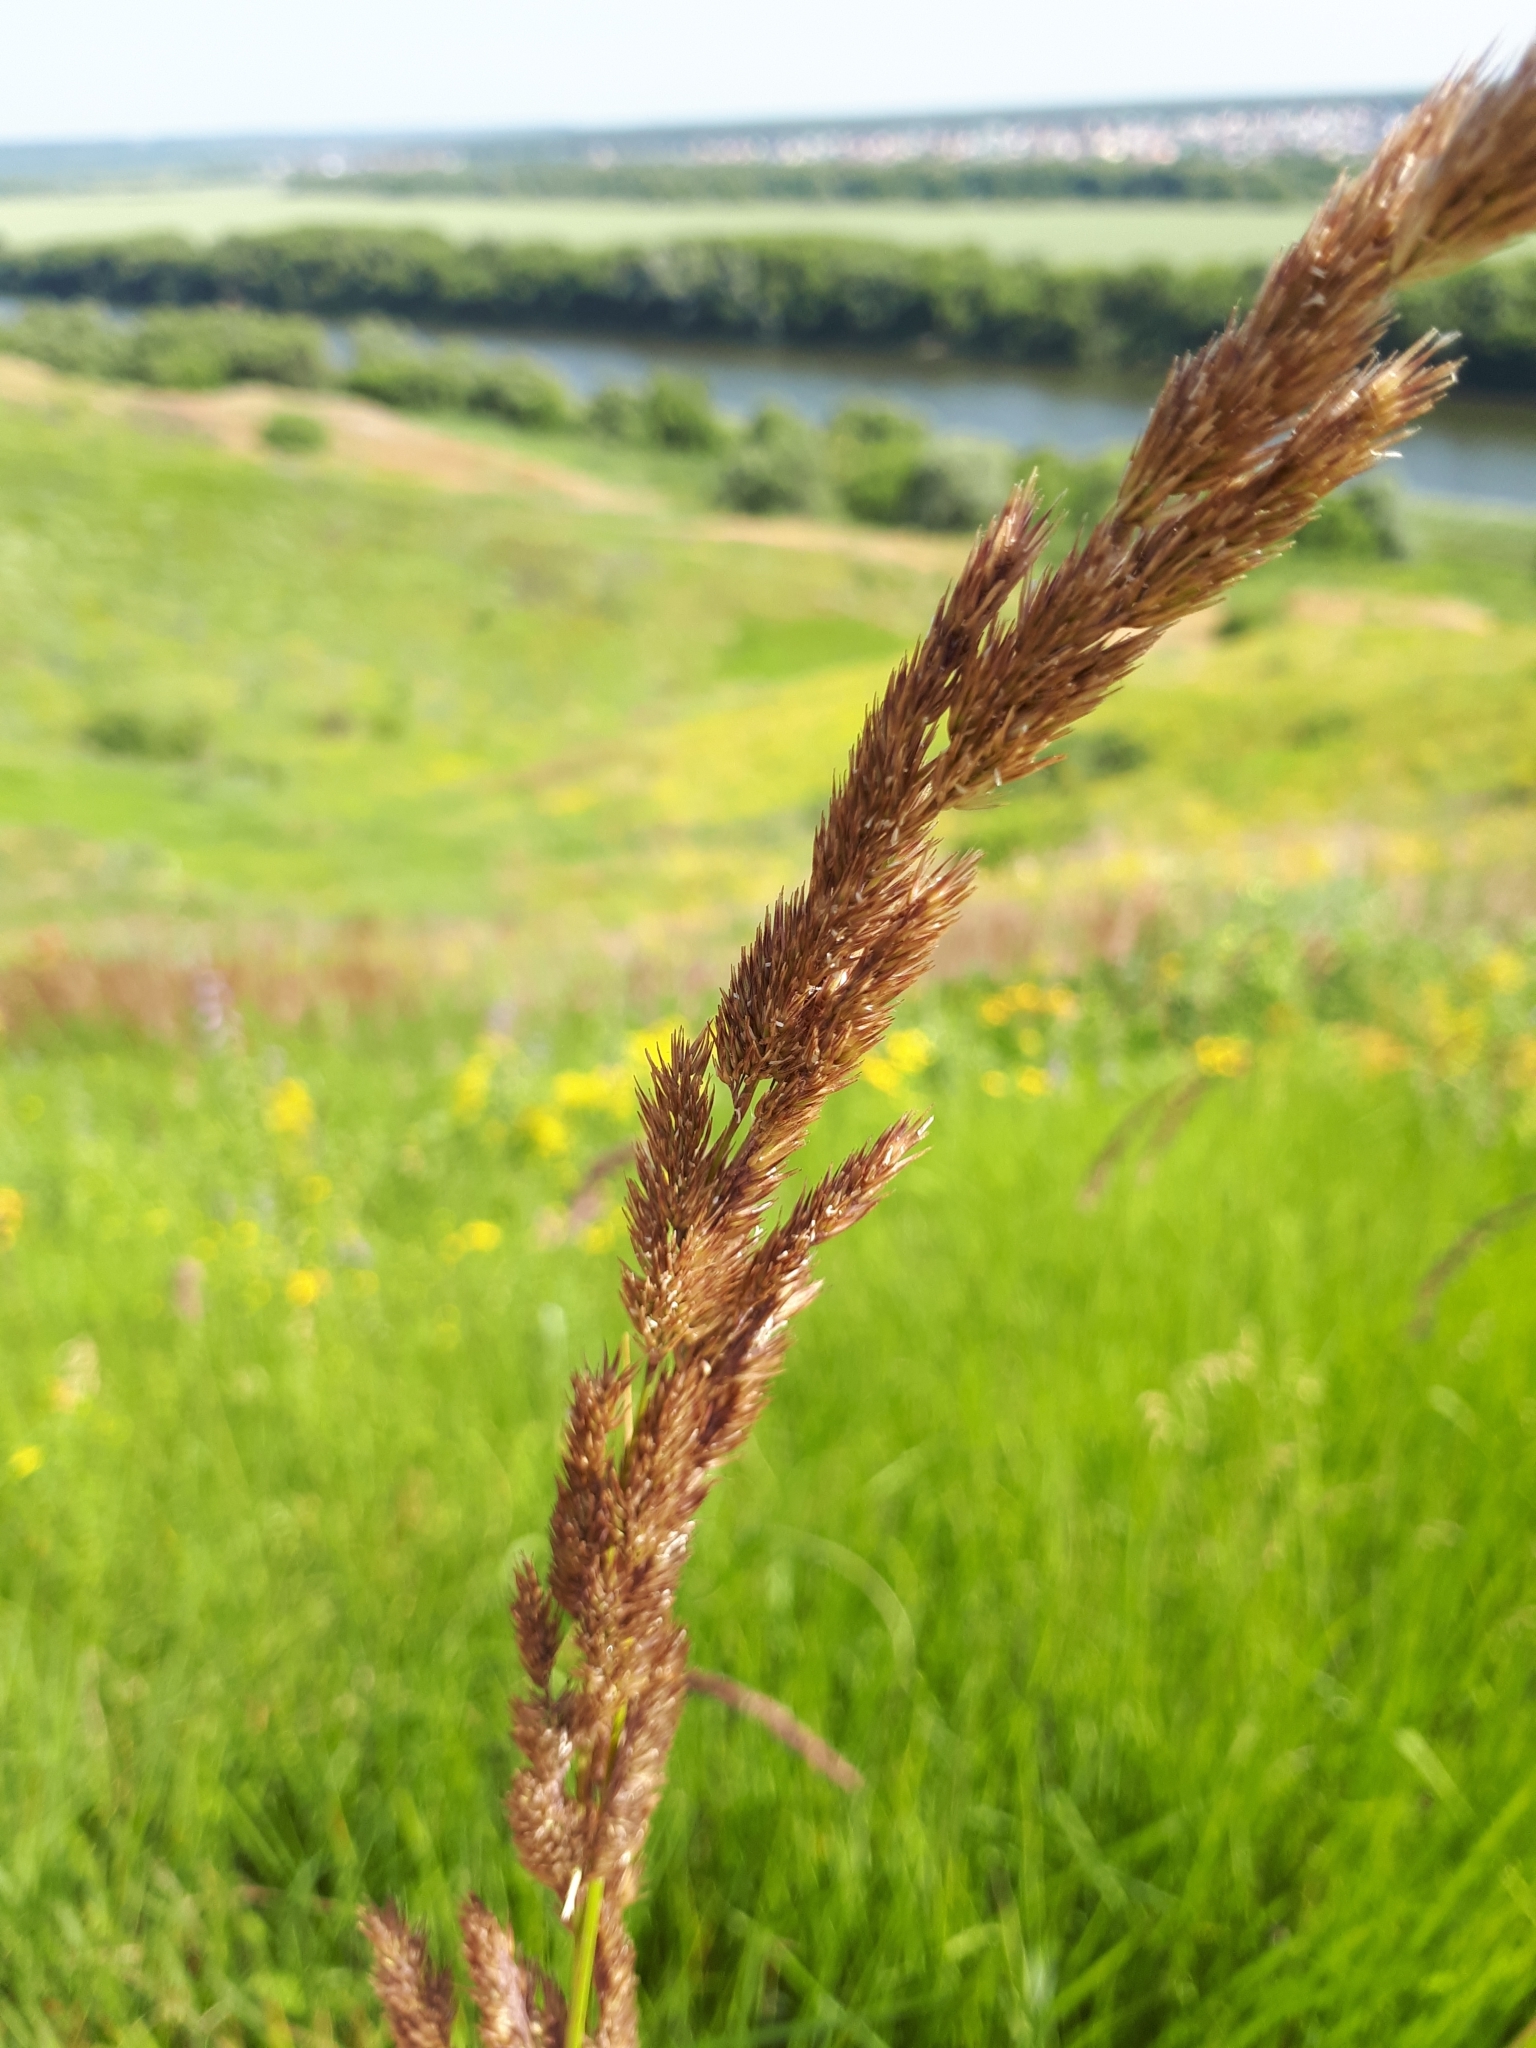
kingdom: Plantae
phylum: Tracheophyta
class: Liliopsida
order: Poales
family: Poaceae
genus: Calamagrostis
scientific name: Calamagrostis epigejos
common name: Wood small-reed
